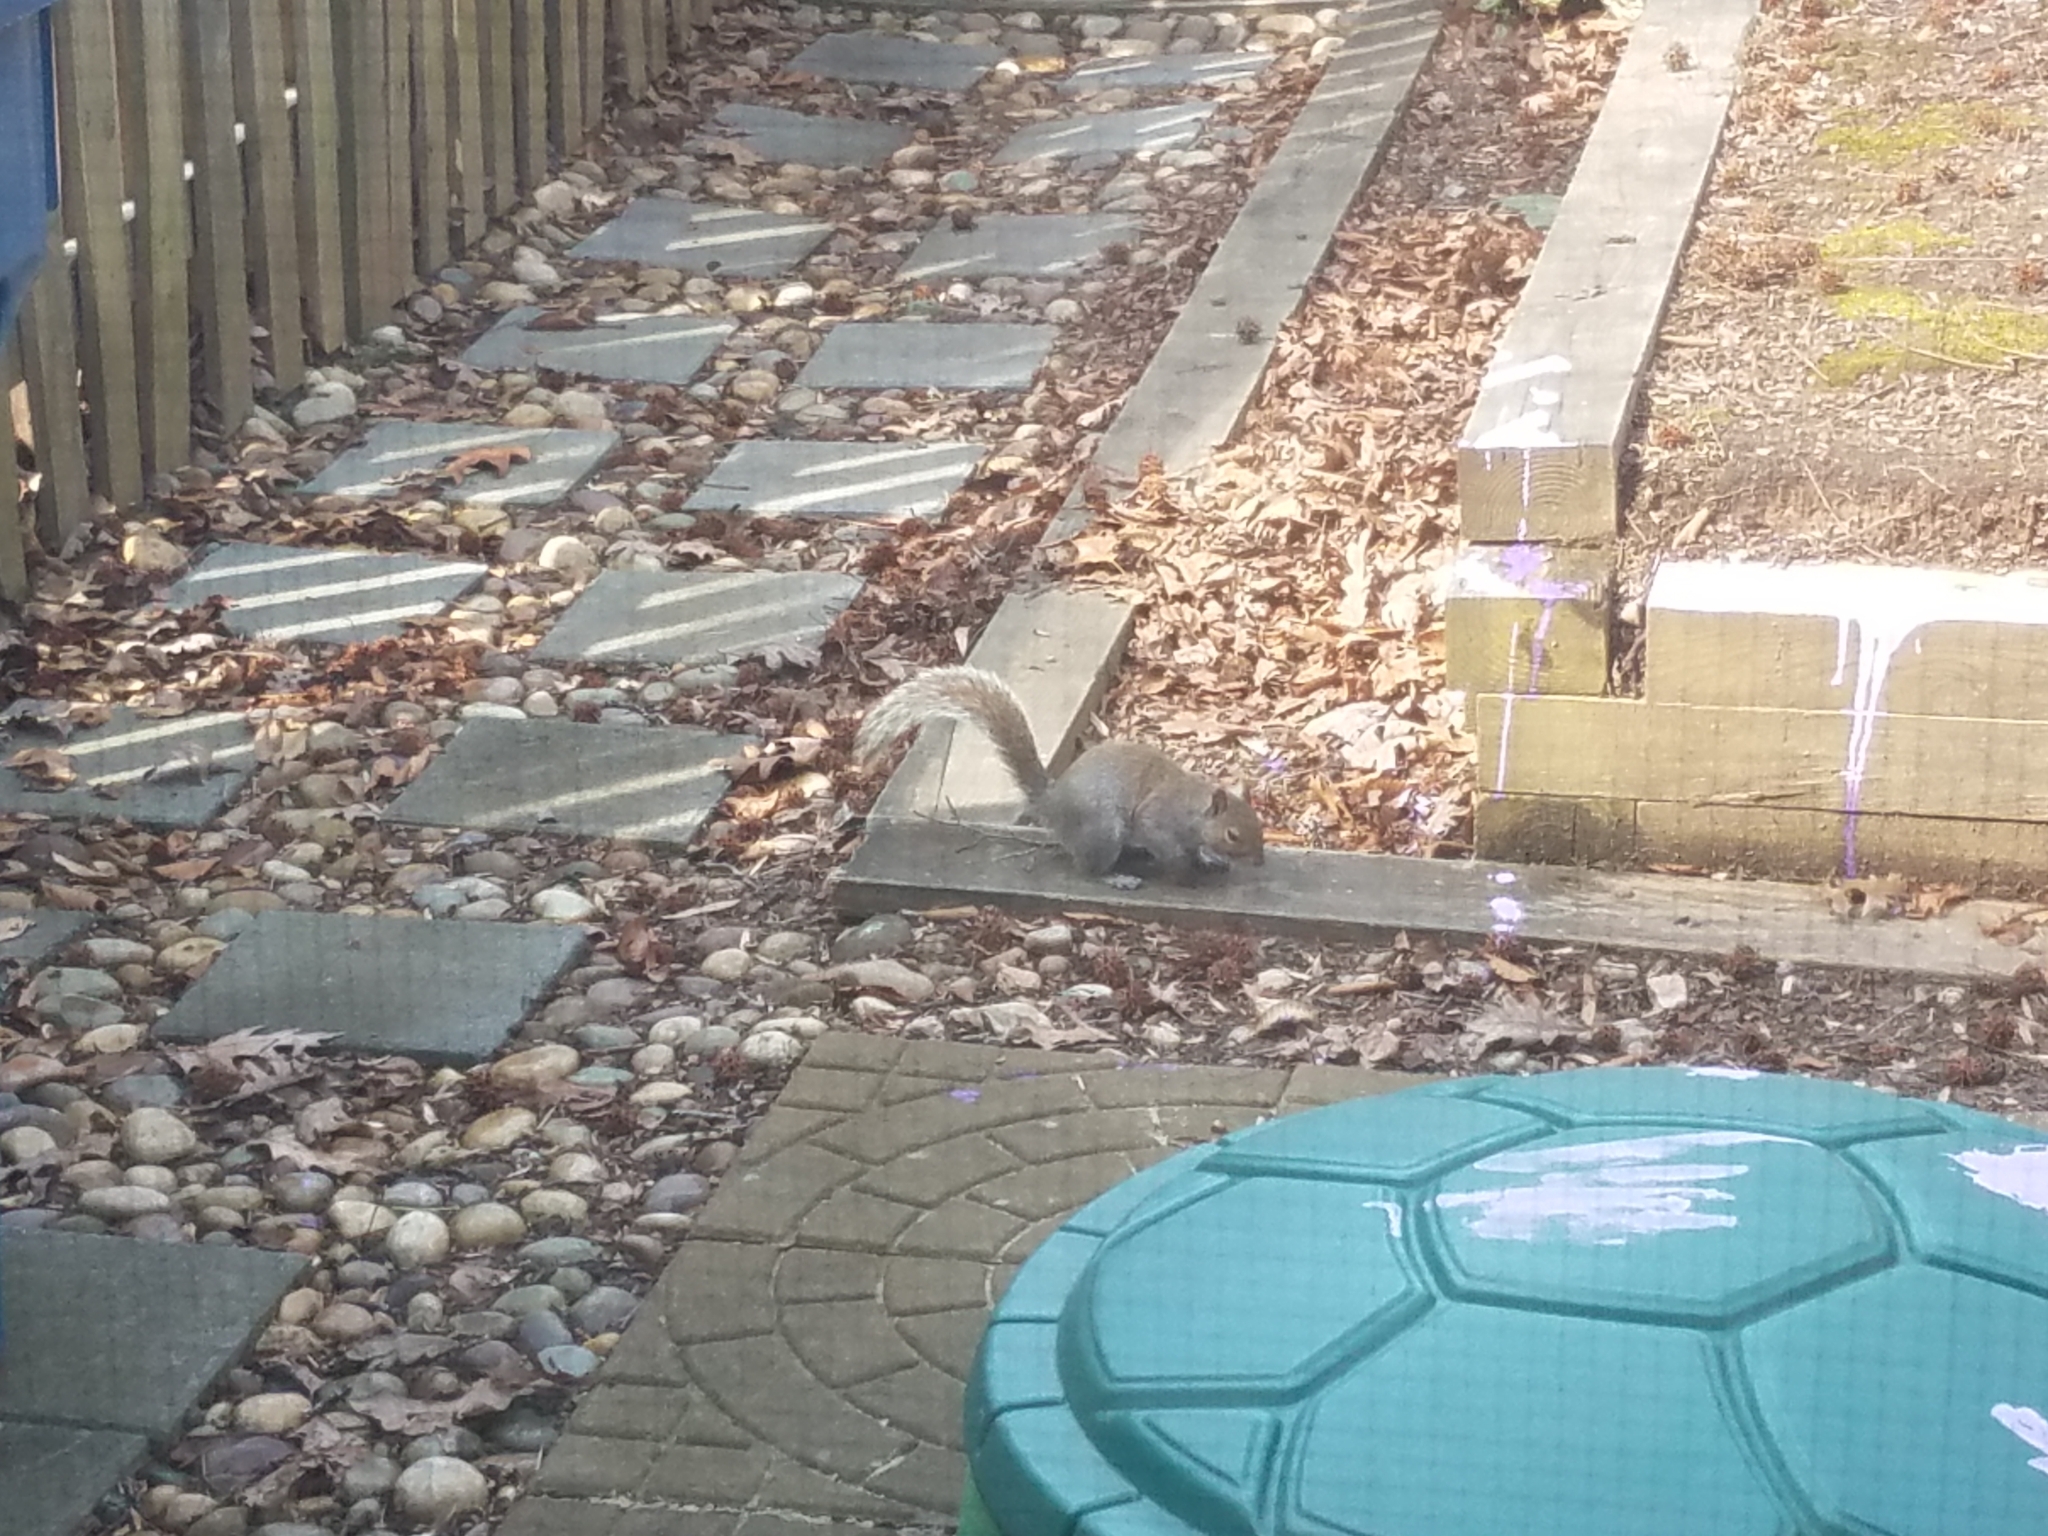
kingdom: Animalia
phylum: Chordata
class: Mammalia
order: Rodentia
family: Sciuridae
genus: Sciurus
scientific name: Sciurus carolinensis
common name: Eastern gray squirrel
